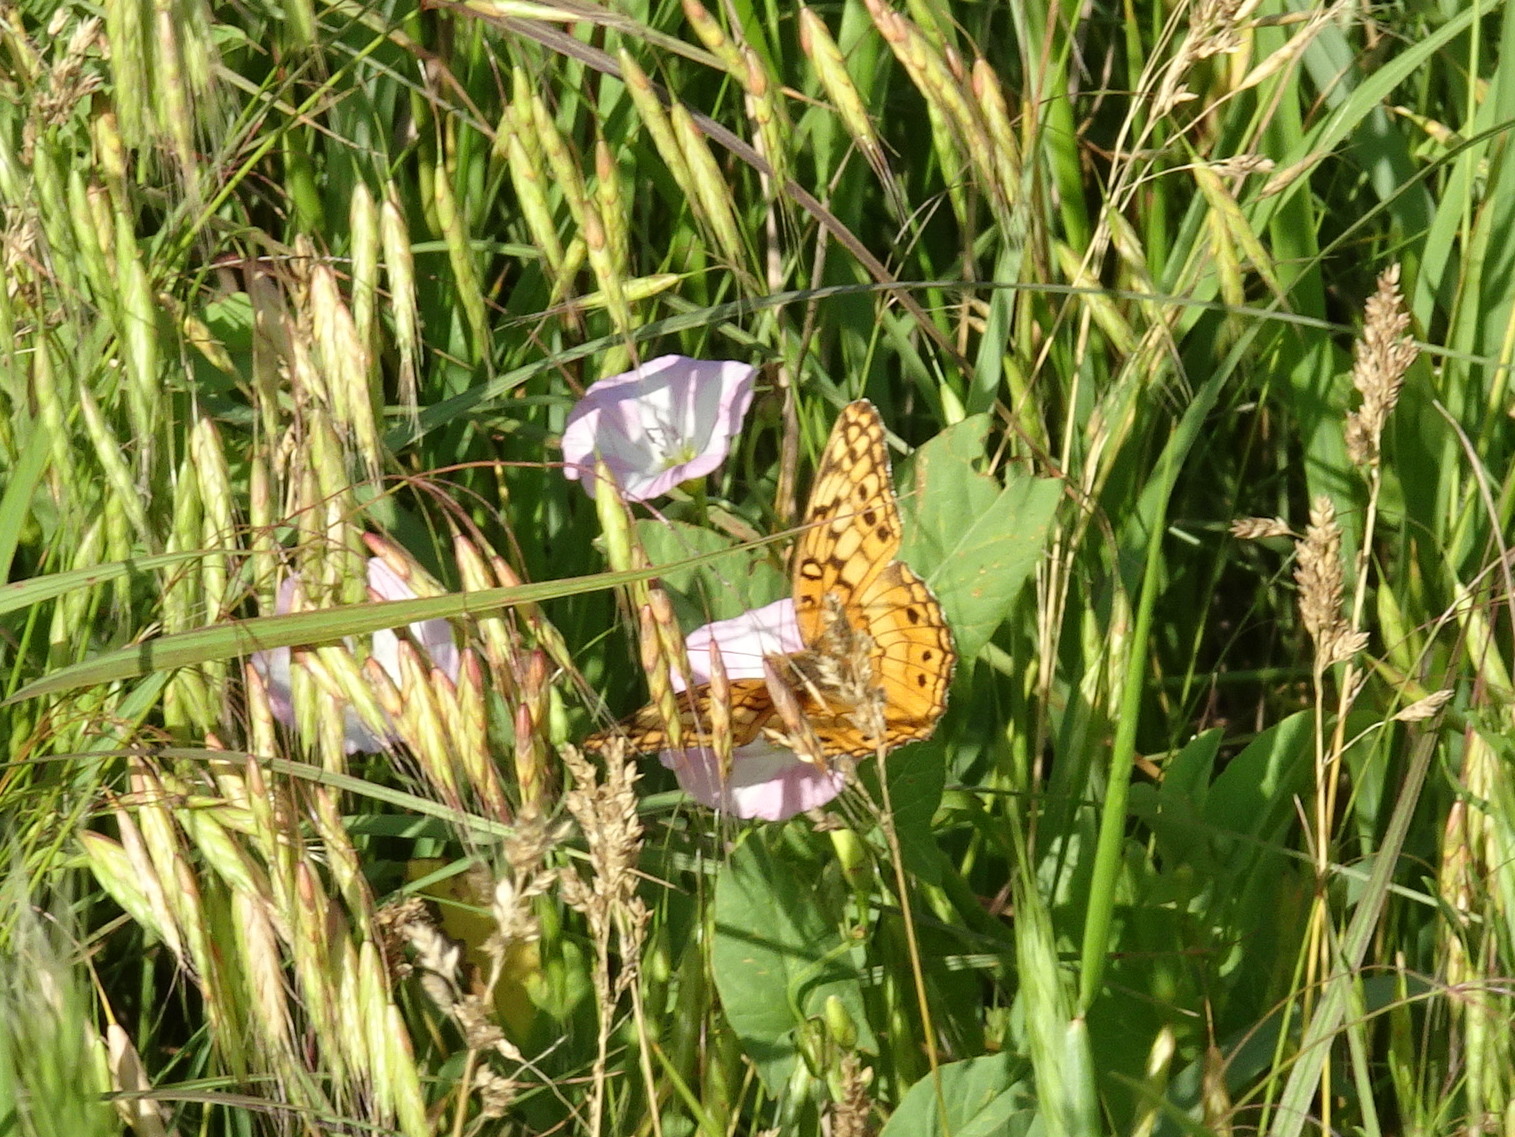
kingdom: Animalia
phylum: Arthropoda
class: Insecta
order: Lepidoptera
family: Nymphalidae
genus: Euptoieta
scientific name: Euptoieta claudia
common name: Variegated fritillary
